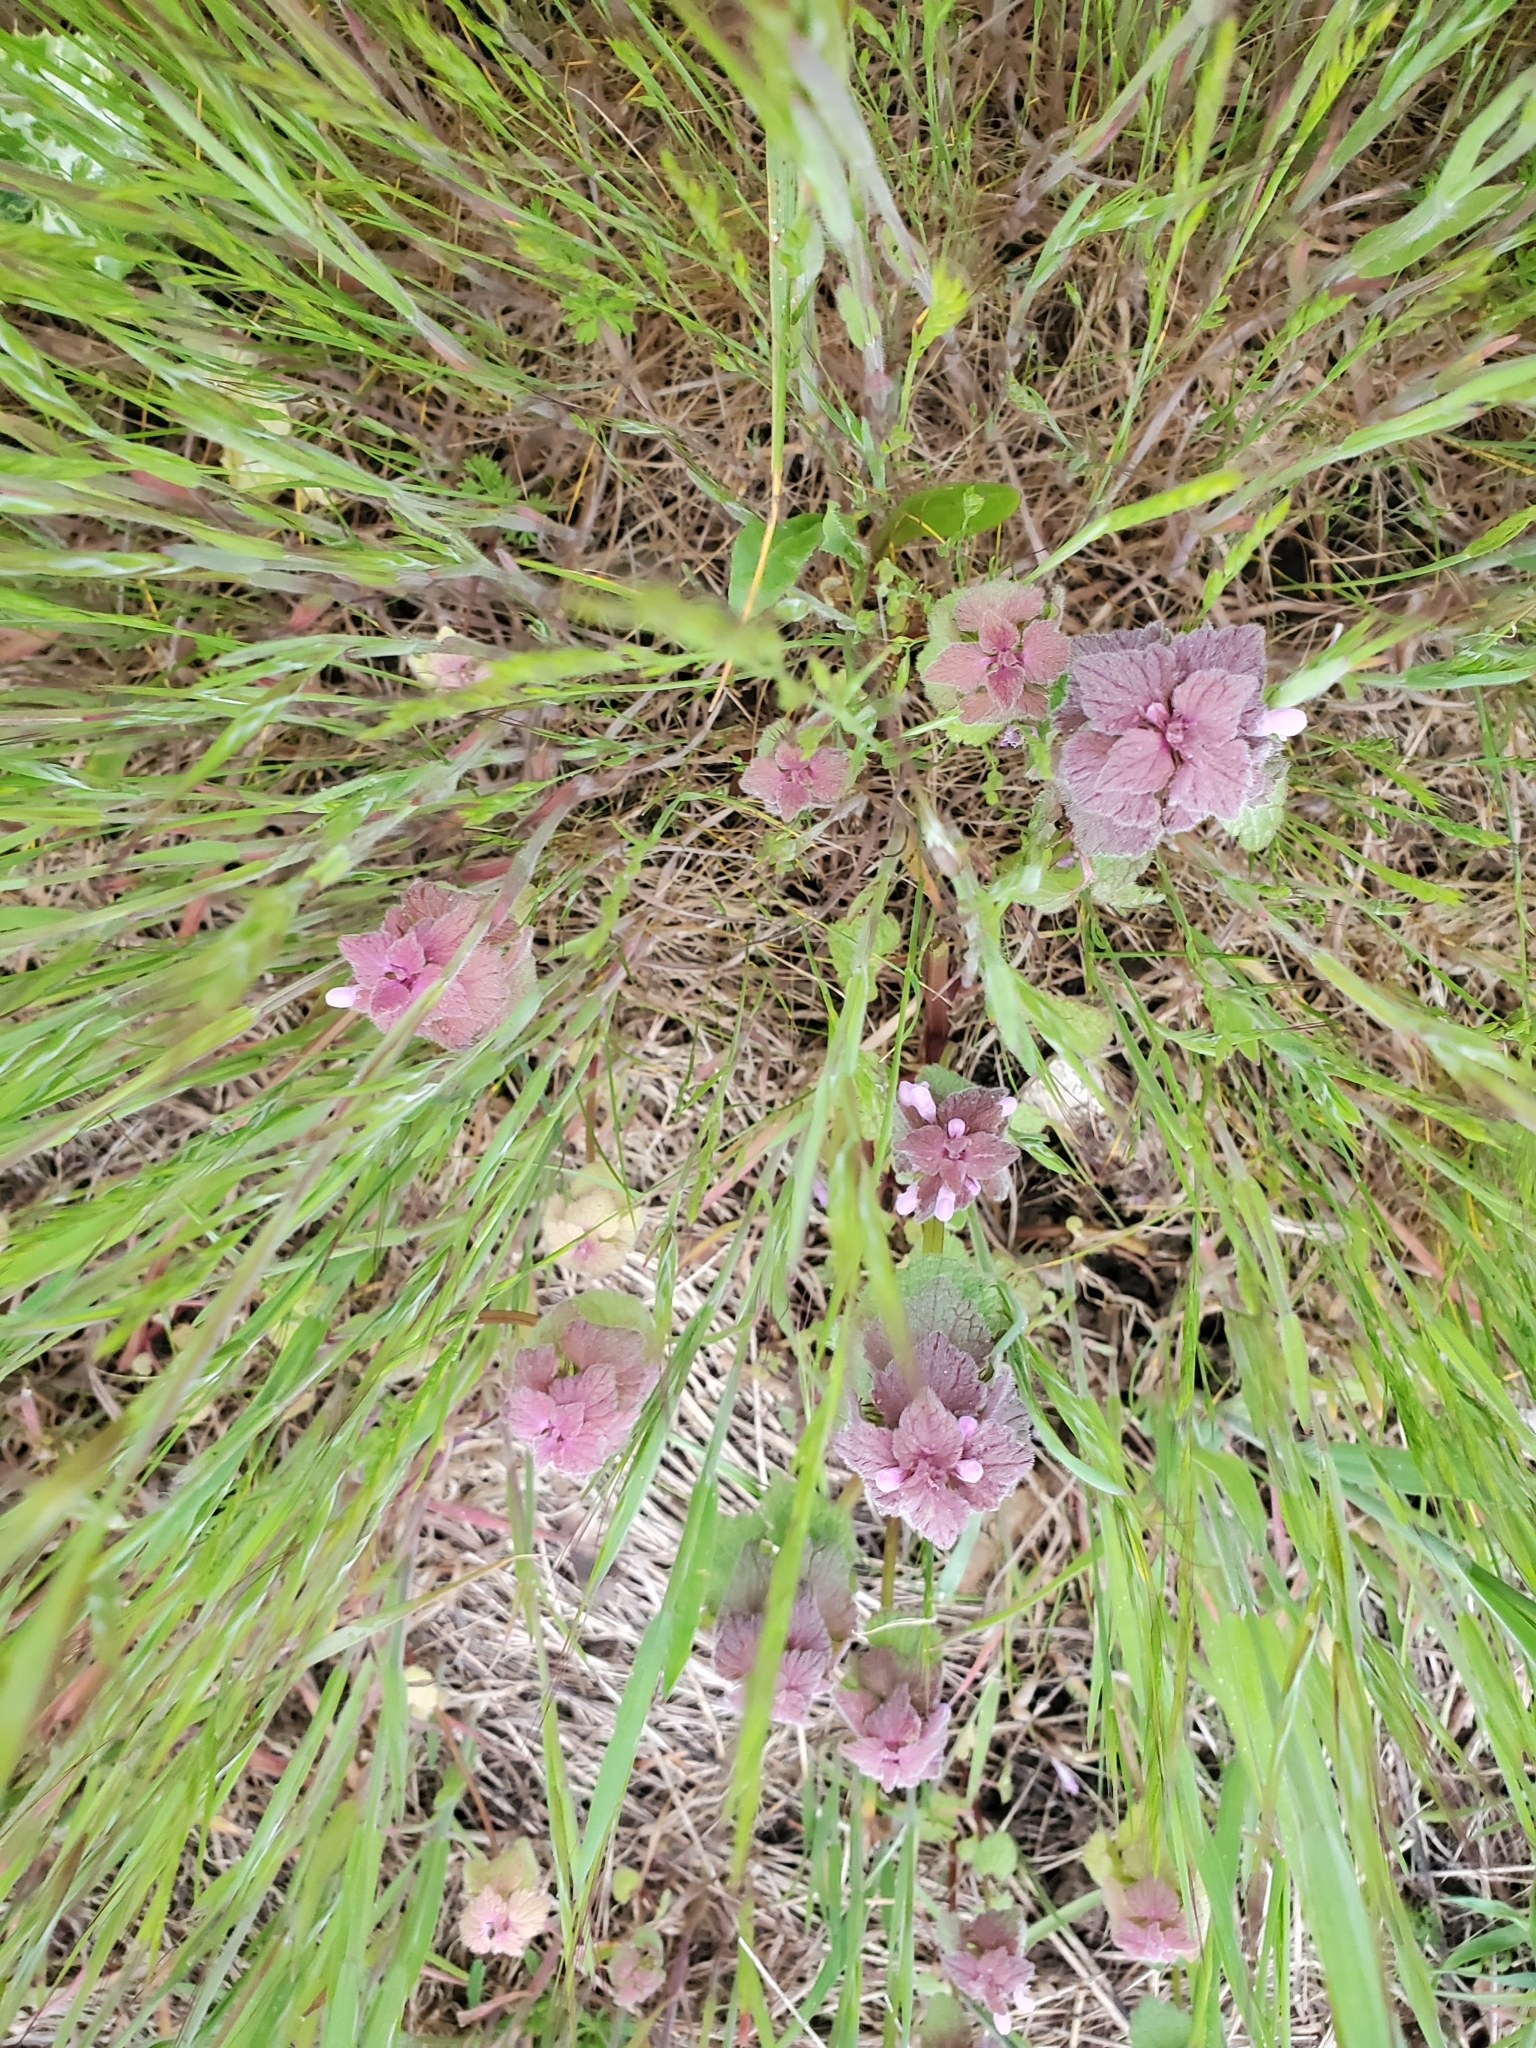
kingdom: Plantae
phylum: Tracheophyta
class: Magnoliopsida
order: Lamiales
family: Lamiaceae
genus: Lamium
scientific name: Lamium purpureum
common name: Red dead-nettle
